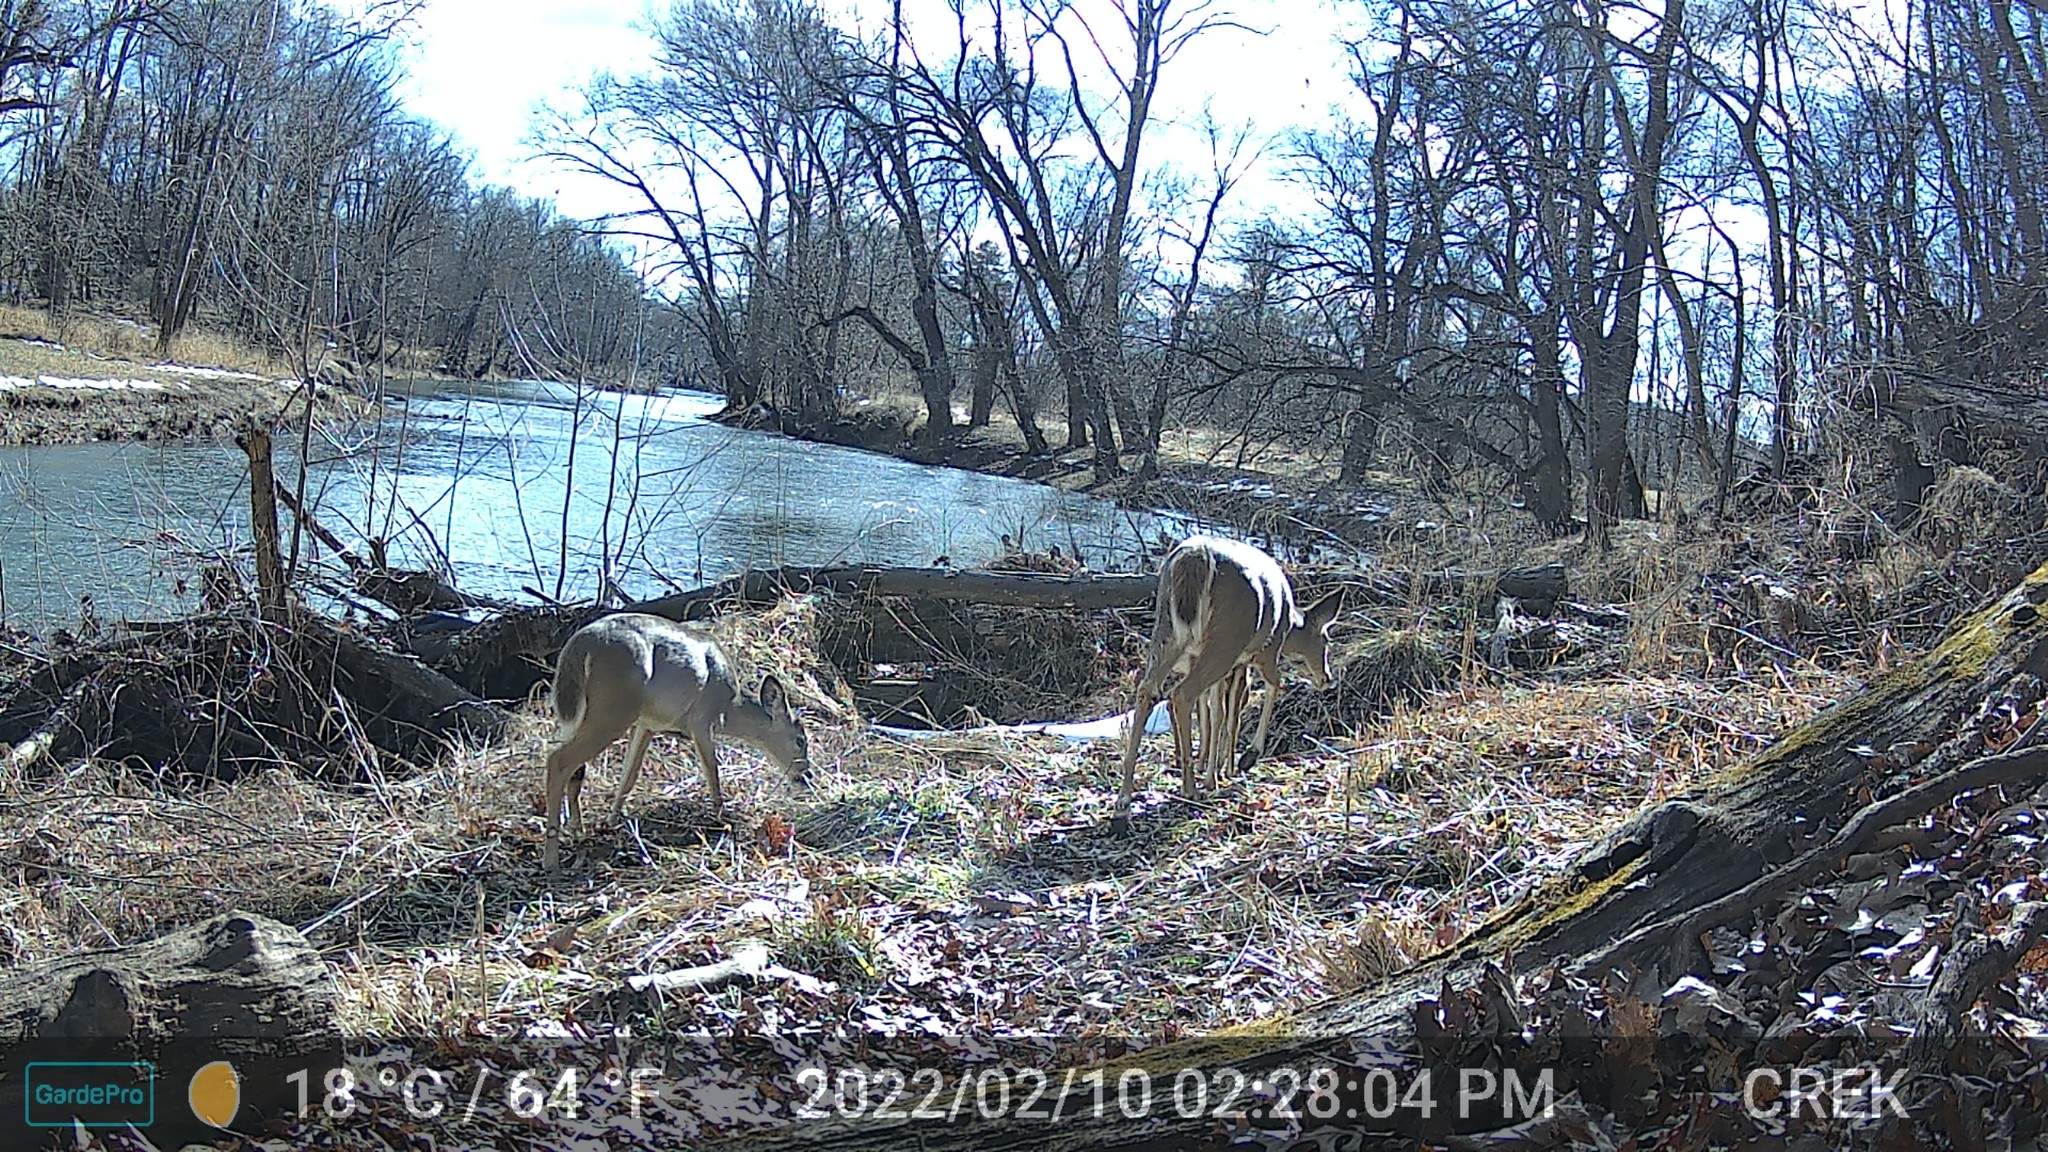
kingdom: Animalia
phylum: Chordata
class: Mammalia
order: Artiodactyla
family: Cervidae
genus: Odocoileus
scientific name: Odocoileus virginianus
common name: White-tailed deer
